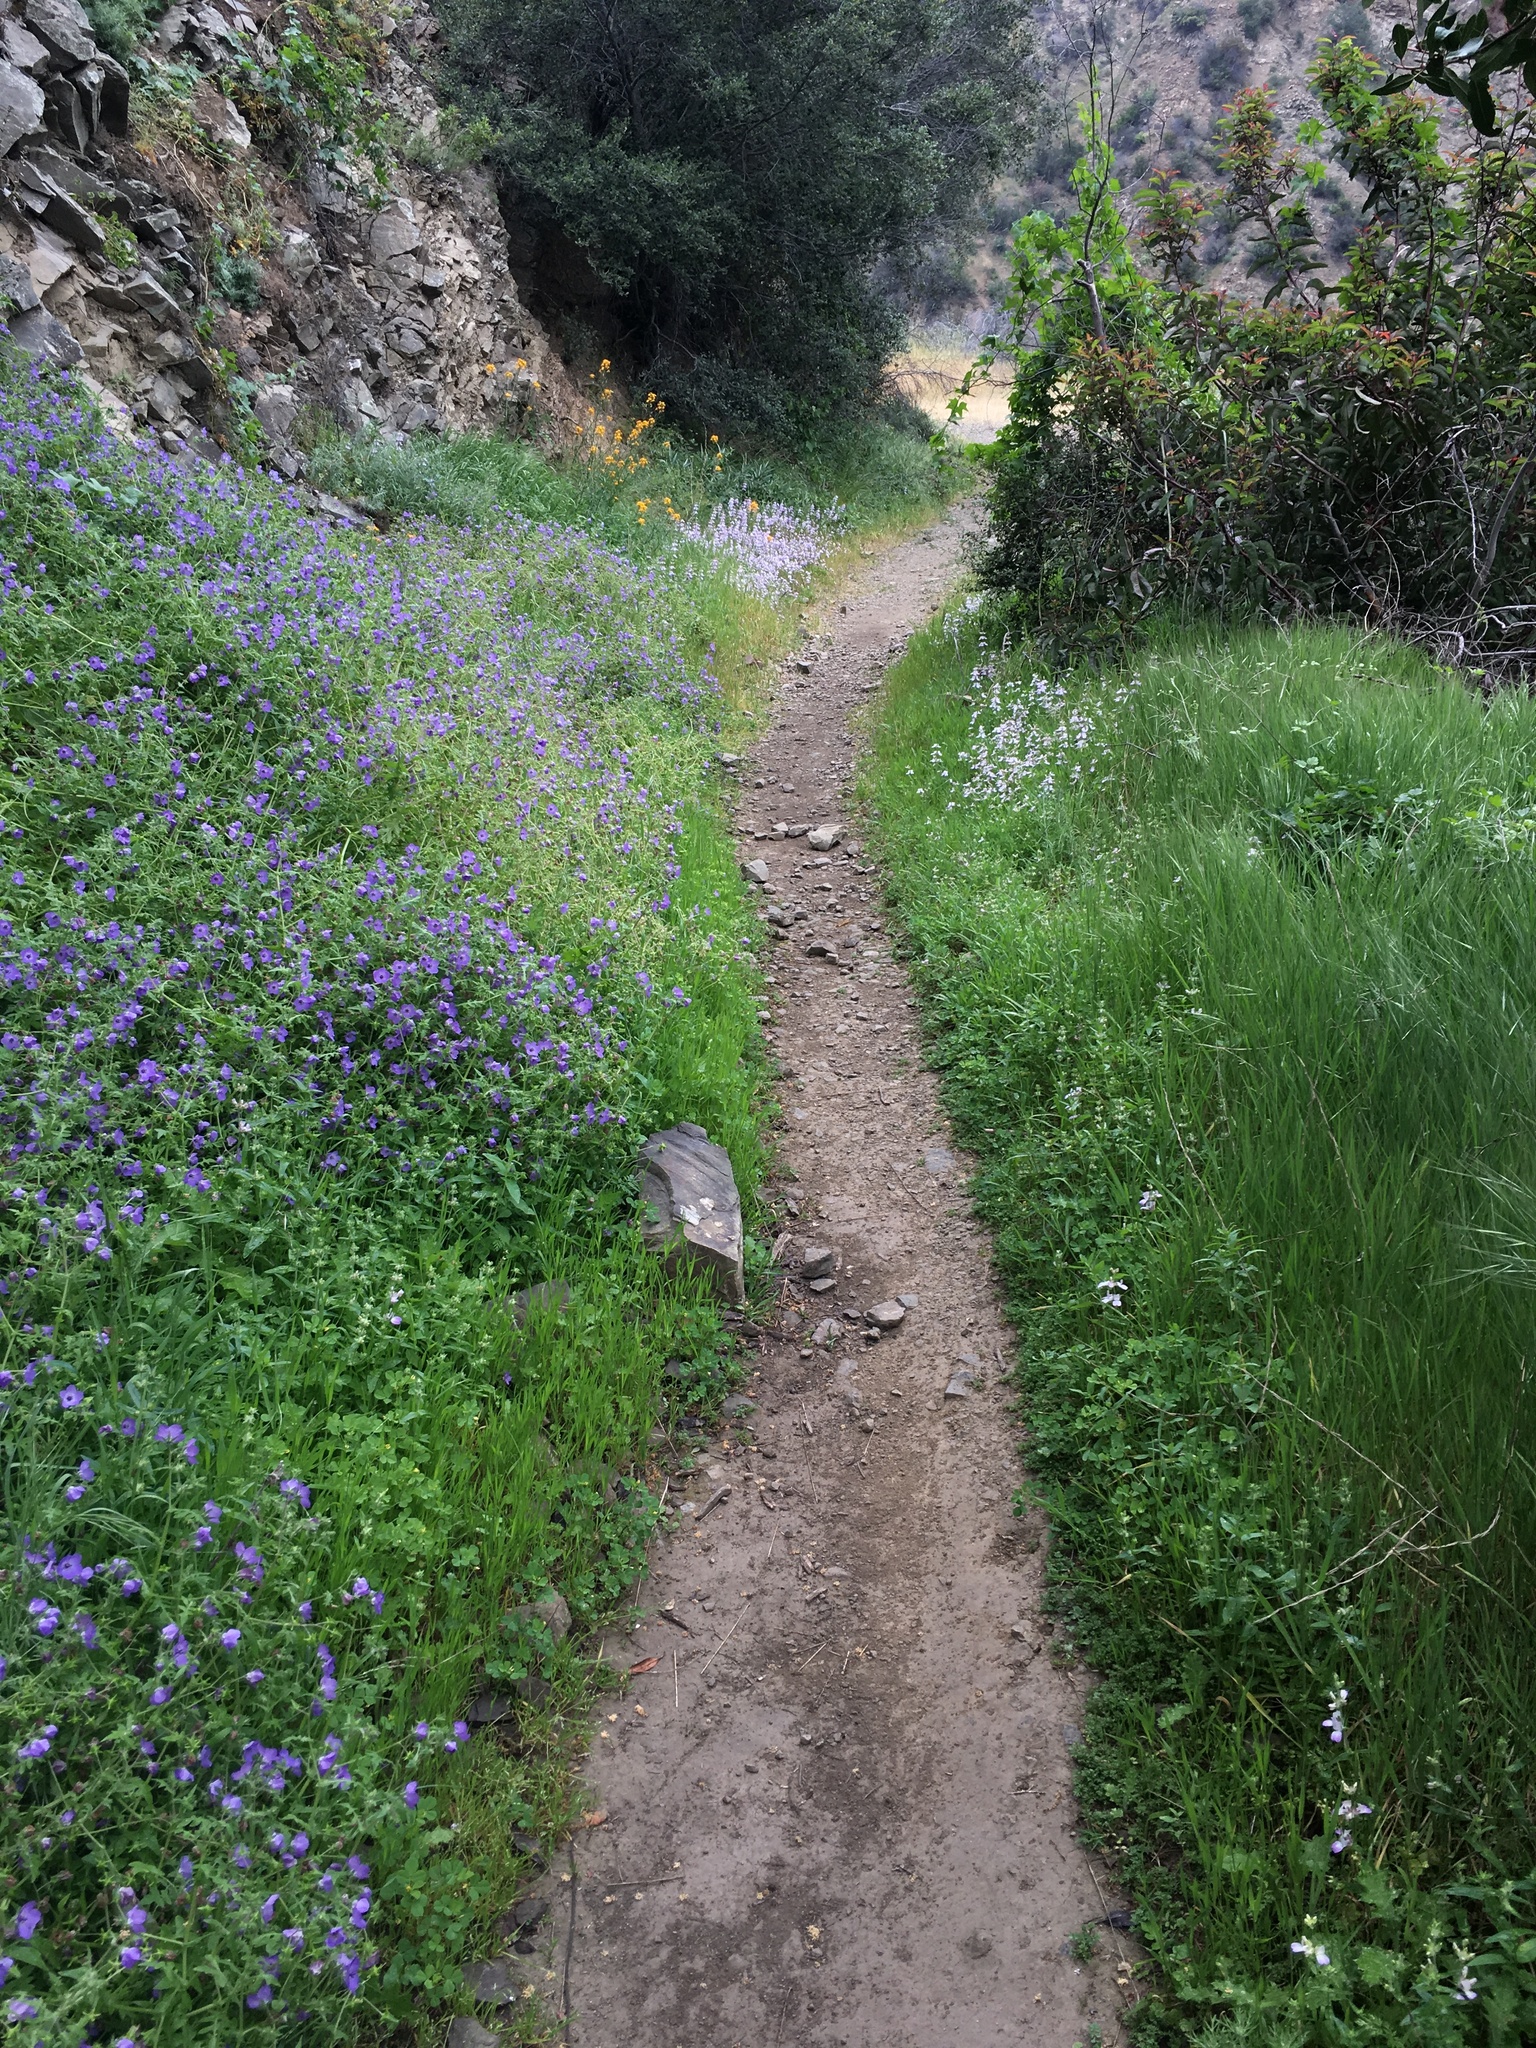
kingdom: Plantae
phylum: Tracheophyta
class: Magnoliopsida
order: Boraginales
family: Hydrophyllaceae
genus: Pholistoma
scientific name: Pholistoma auritum
